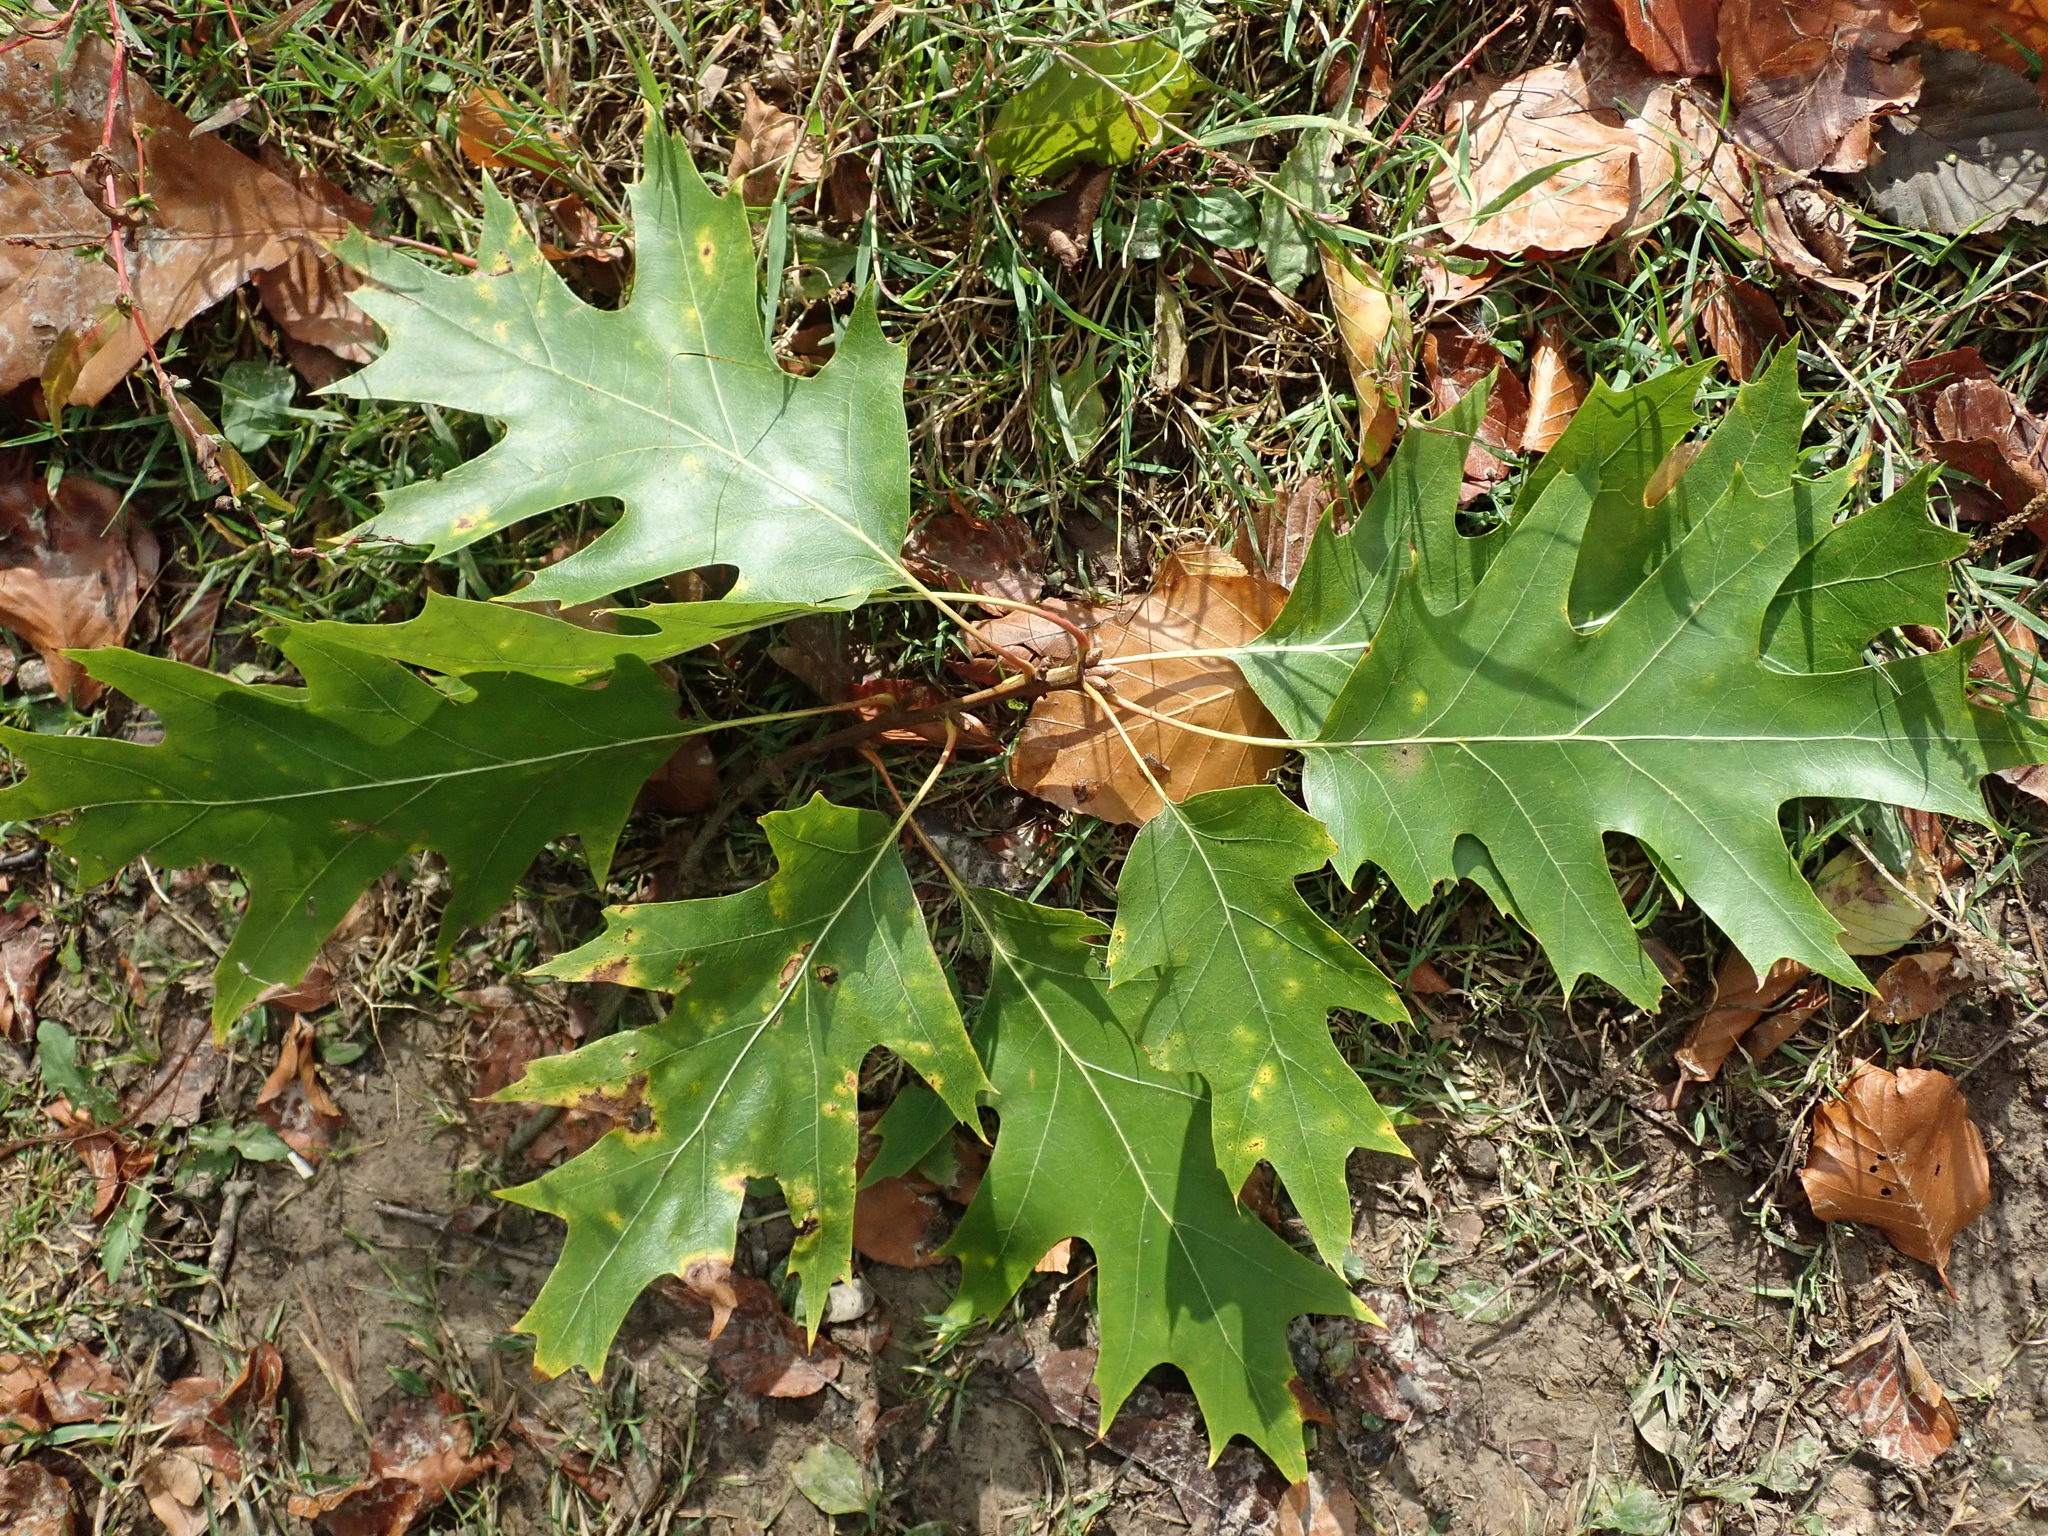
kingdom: Plantae
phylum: Tracheophyta
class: Magnoliopsida
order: Fagales
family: Fagaceae
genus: Quercus
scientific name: Quercus rubra
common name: Red oak
